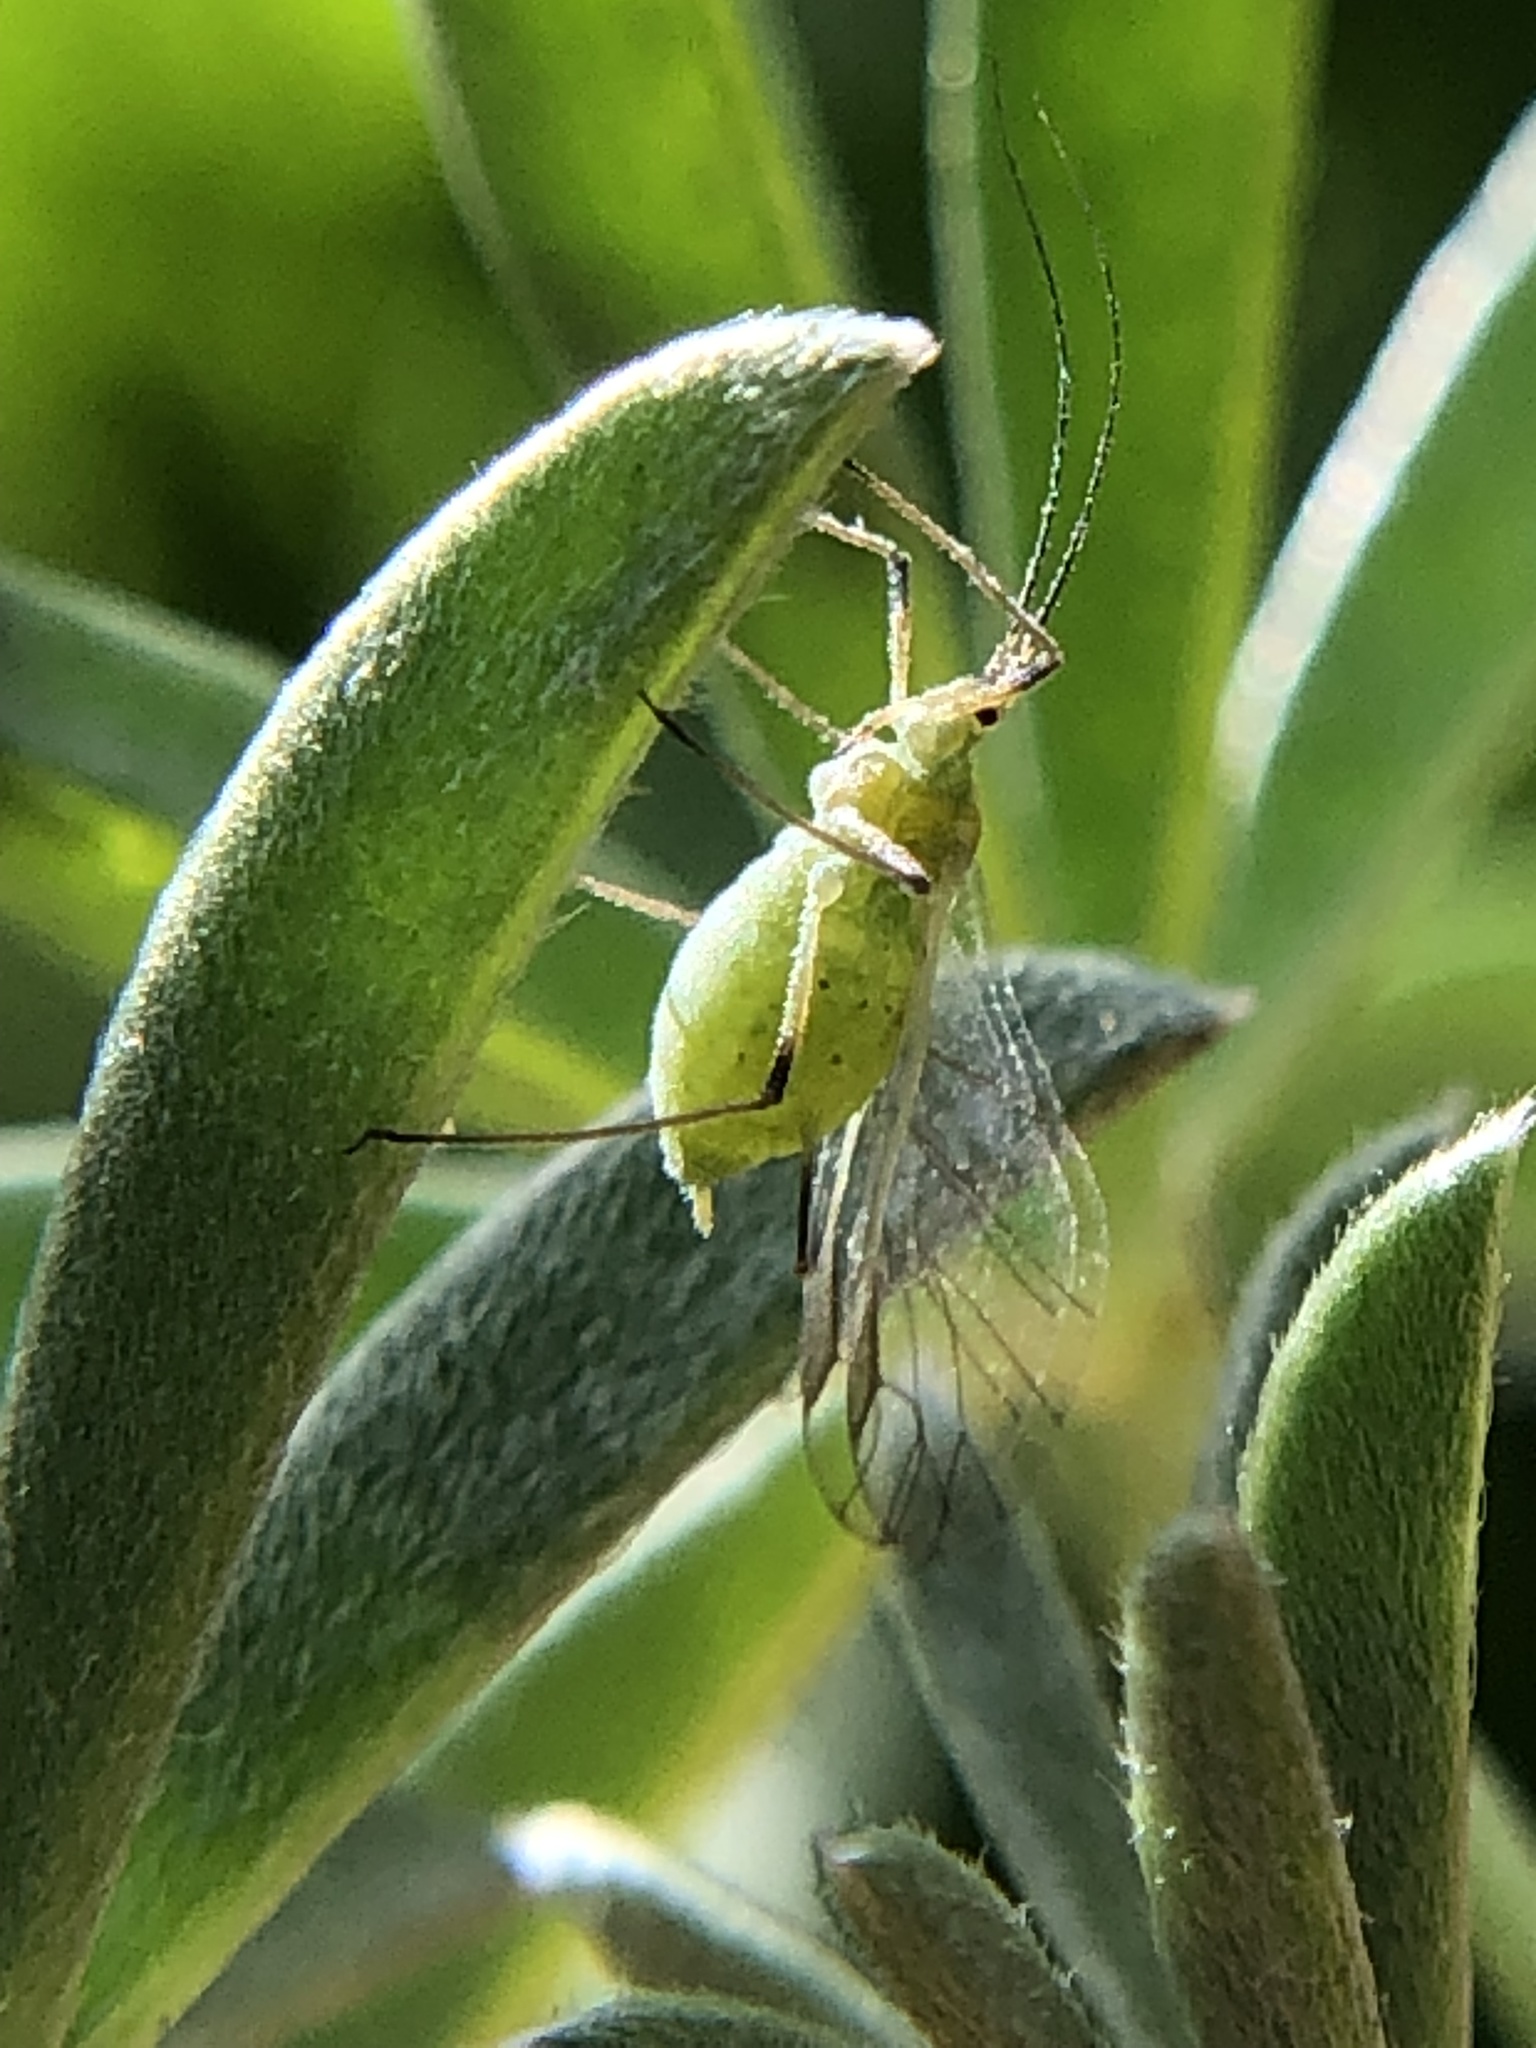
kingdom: Animalia
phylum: Arthropoda
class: Insecta
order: Hemiptera
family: Aphididae
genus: Macrosiphum
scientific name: Macrosiphum albifrons
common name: Lupine aphid
